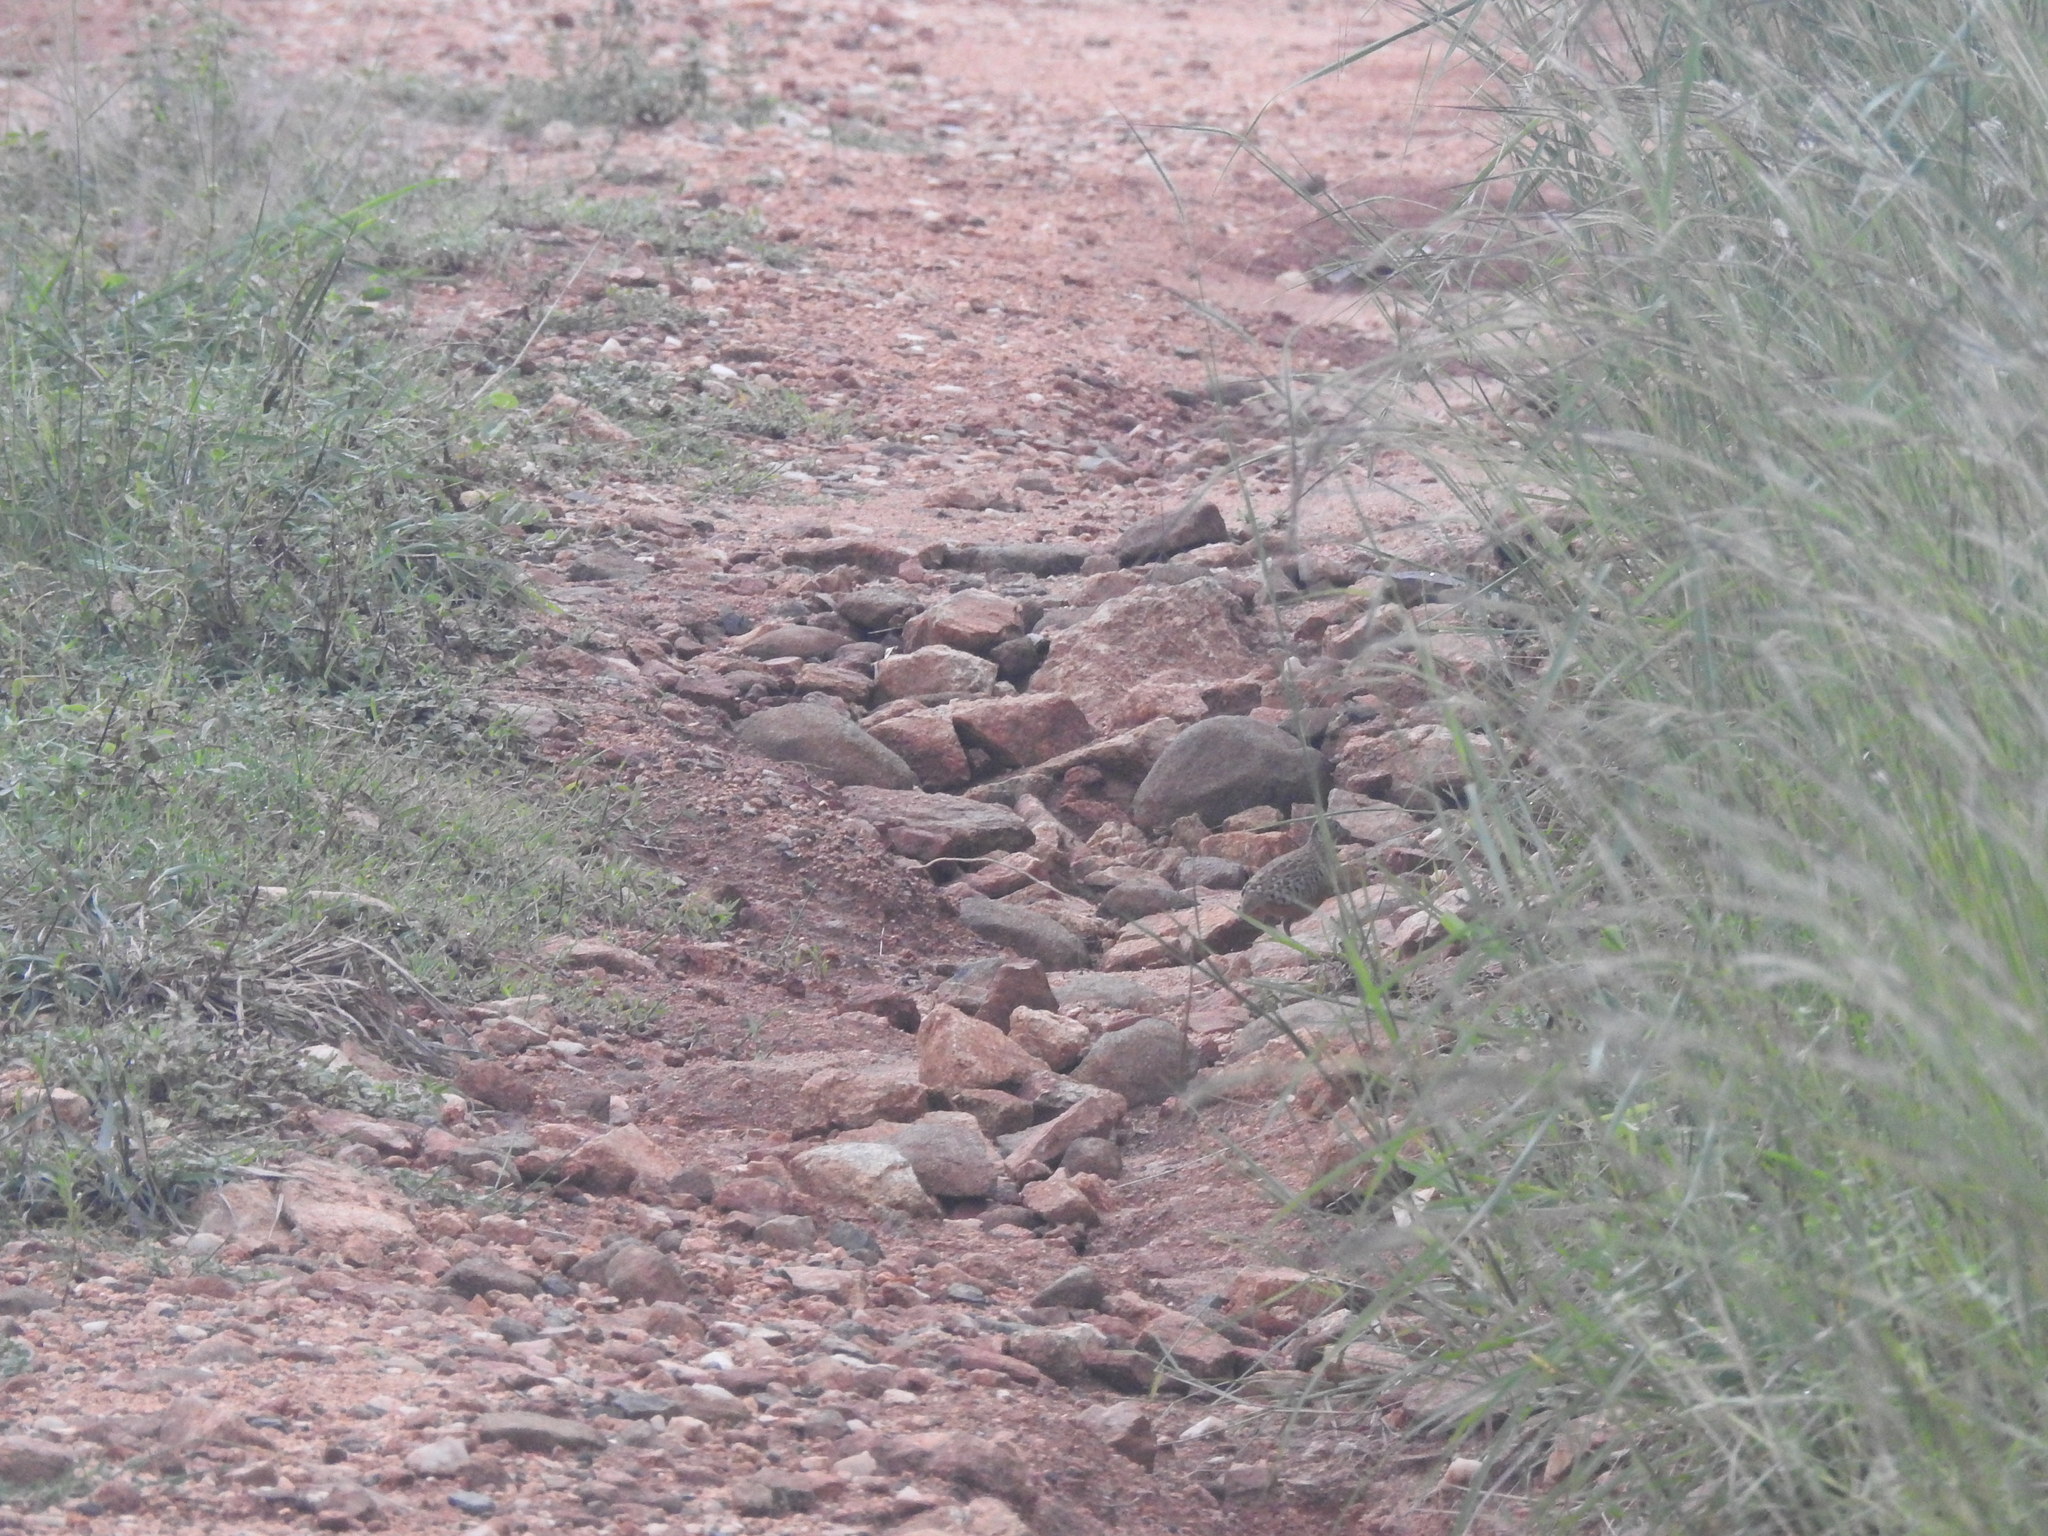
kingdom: Animalia
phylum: Chordata
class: Aves
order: Charadriiformes
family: Turnicidae
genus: Turnix
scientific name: Turnix suscitator
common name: Barred buttonquail
